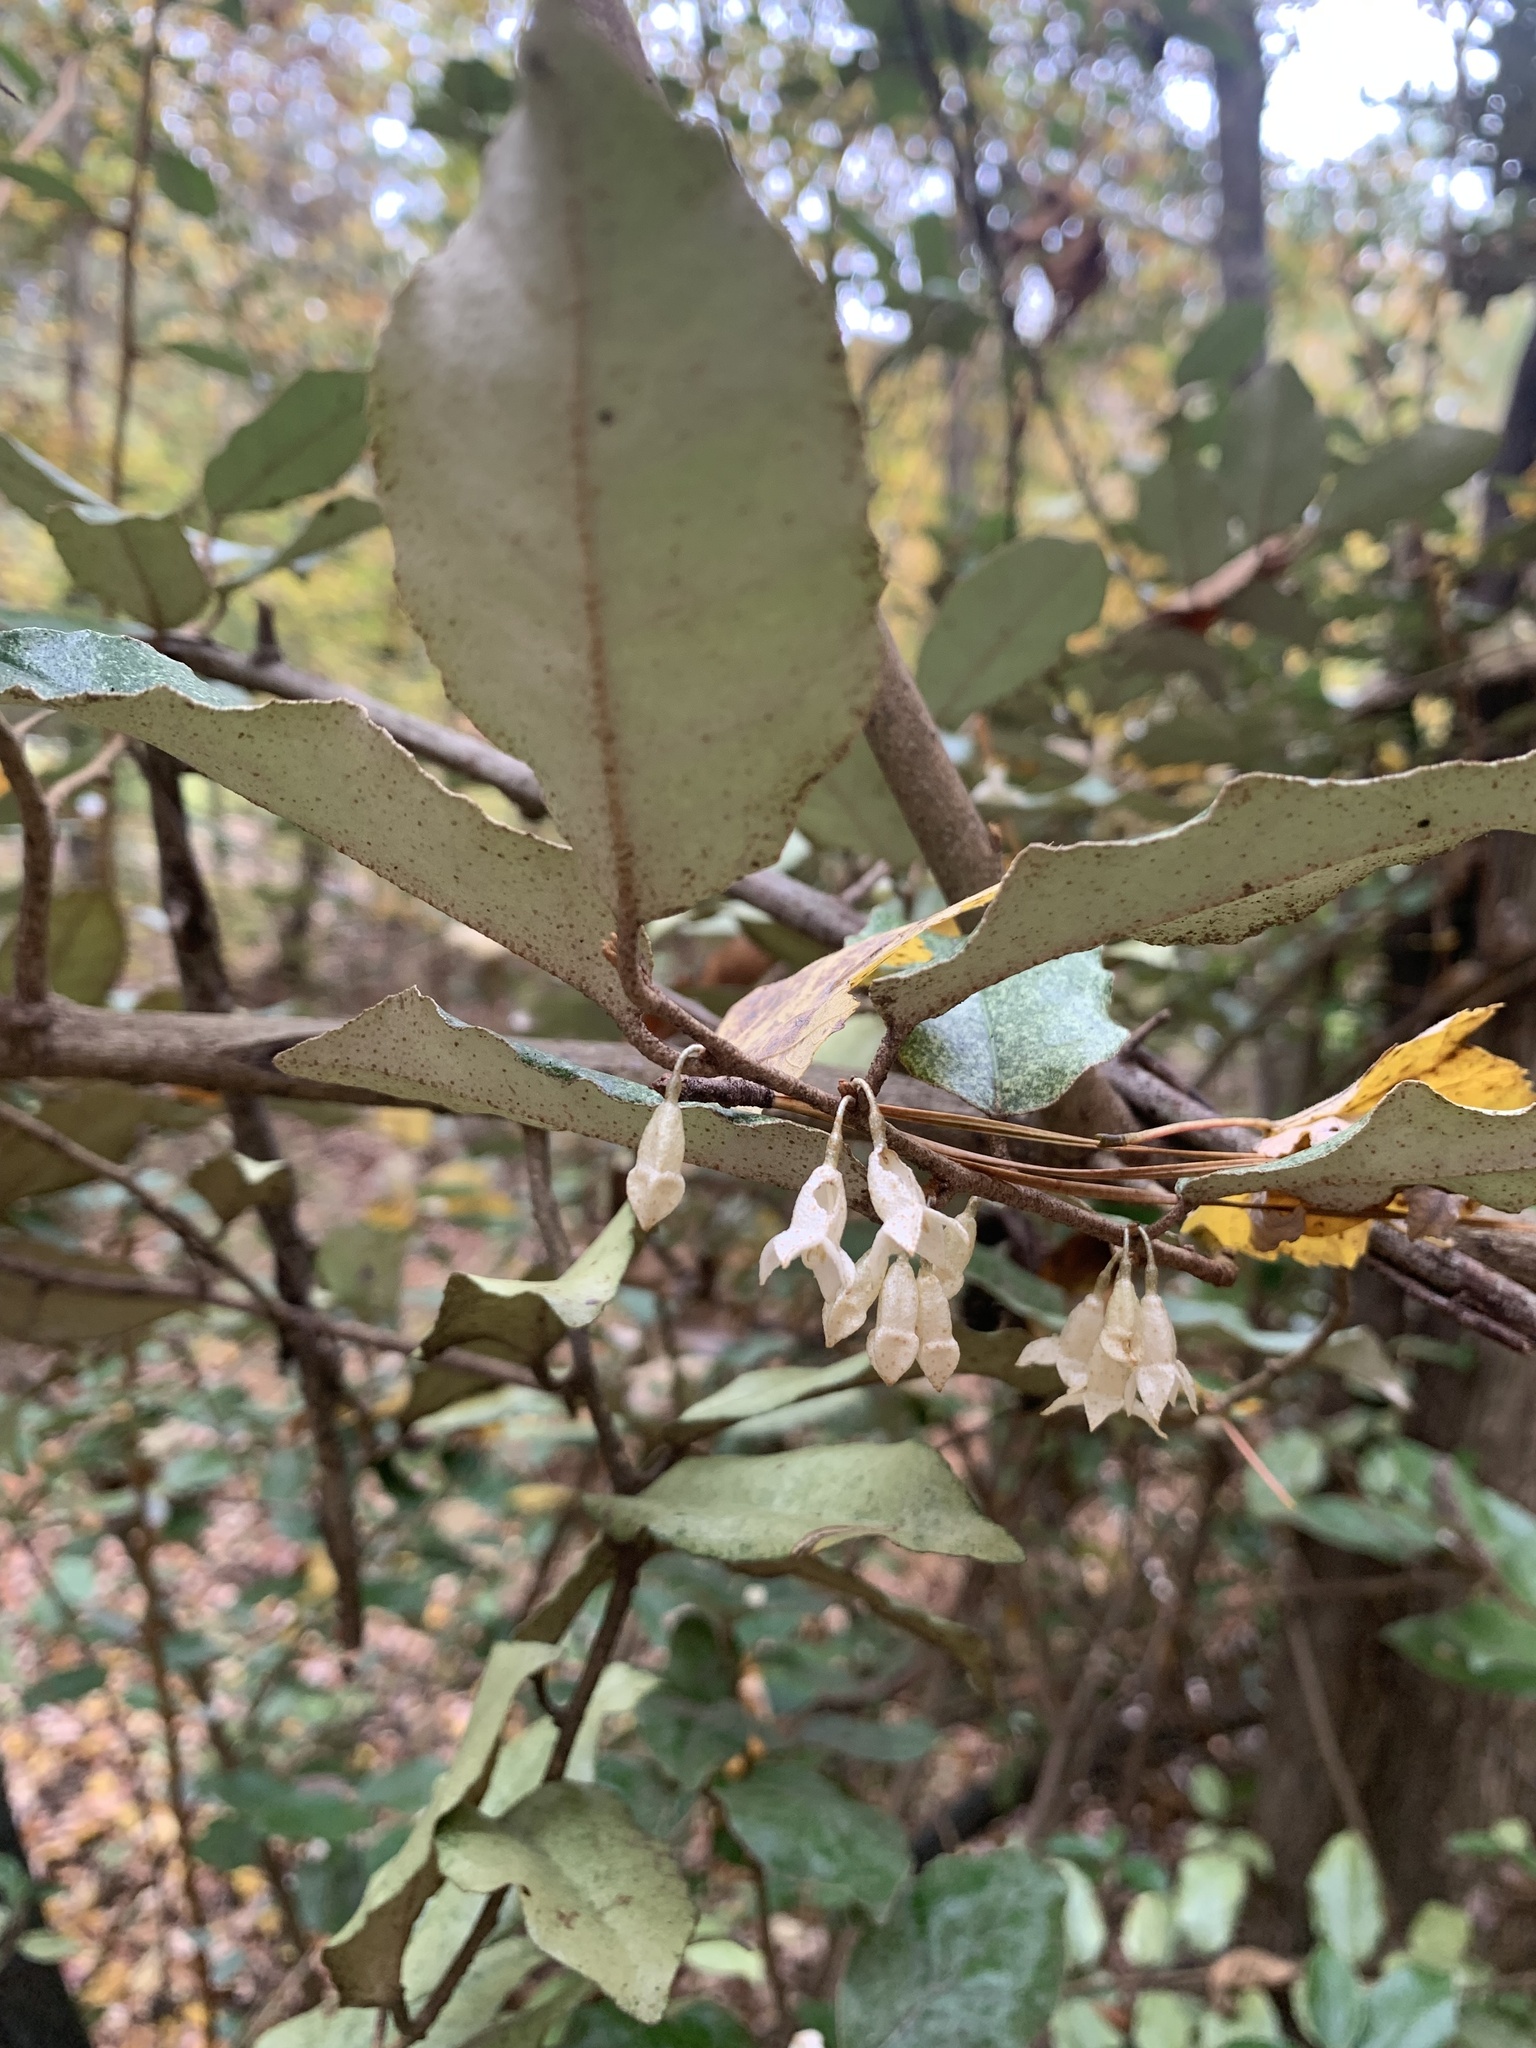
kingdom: Plantae
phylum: Tracheophyta
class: Magnoliopsida
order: Rosales
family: Elaeagnaceae
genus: Elaeagnus
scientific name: Elaeagnus pungens
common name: Spiny oleaster
